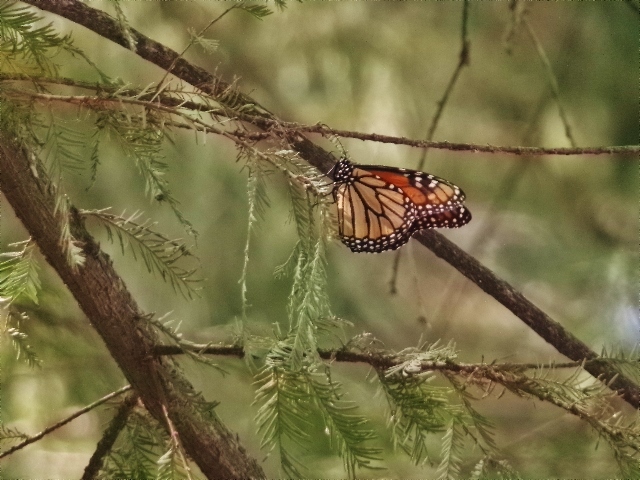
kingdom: Animalia
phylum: Arthropoda
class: Insecta
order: Lepidoptera
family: Nymphalidae
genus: Danaus
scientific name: Danaus plexippus
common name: Monarch
